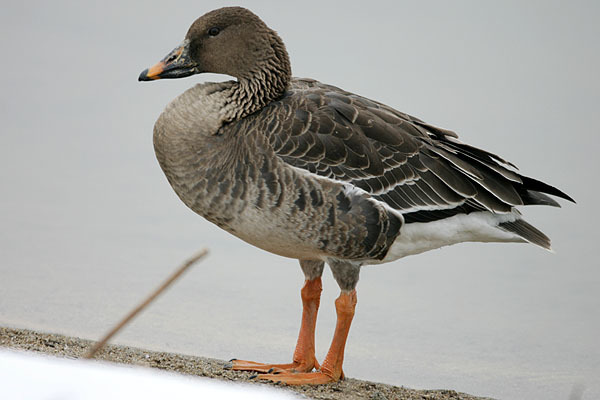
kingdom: Animalia
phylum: Chordata
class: Aves
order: Anseriformes
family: Anatidae
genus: Anser
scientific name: Anser fabalis
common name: Bean goose
